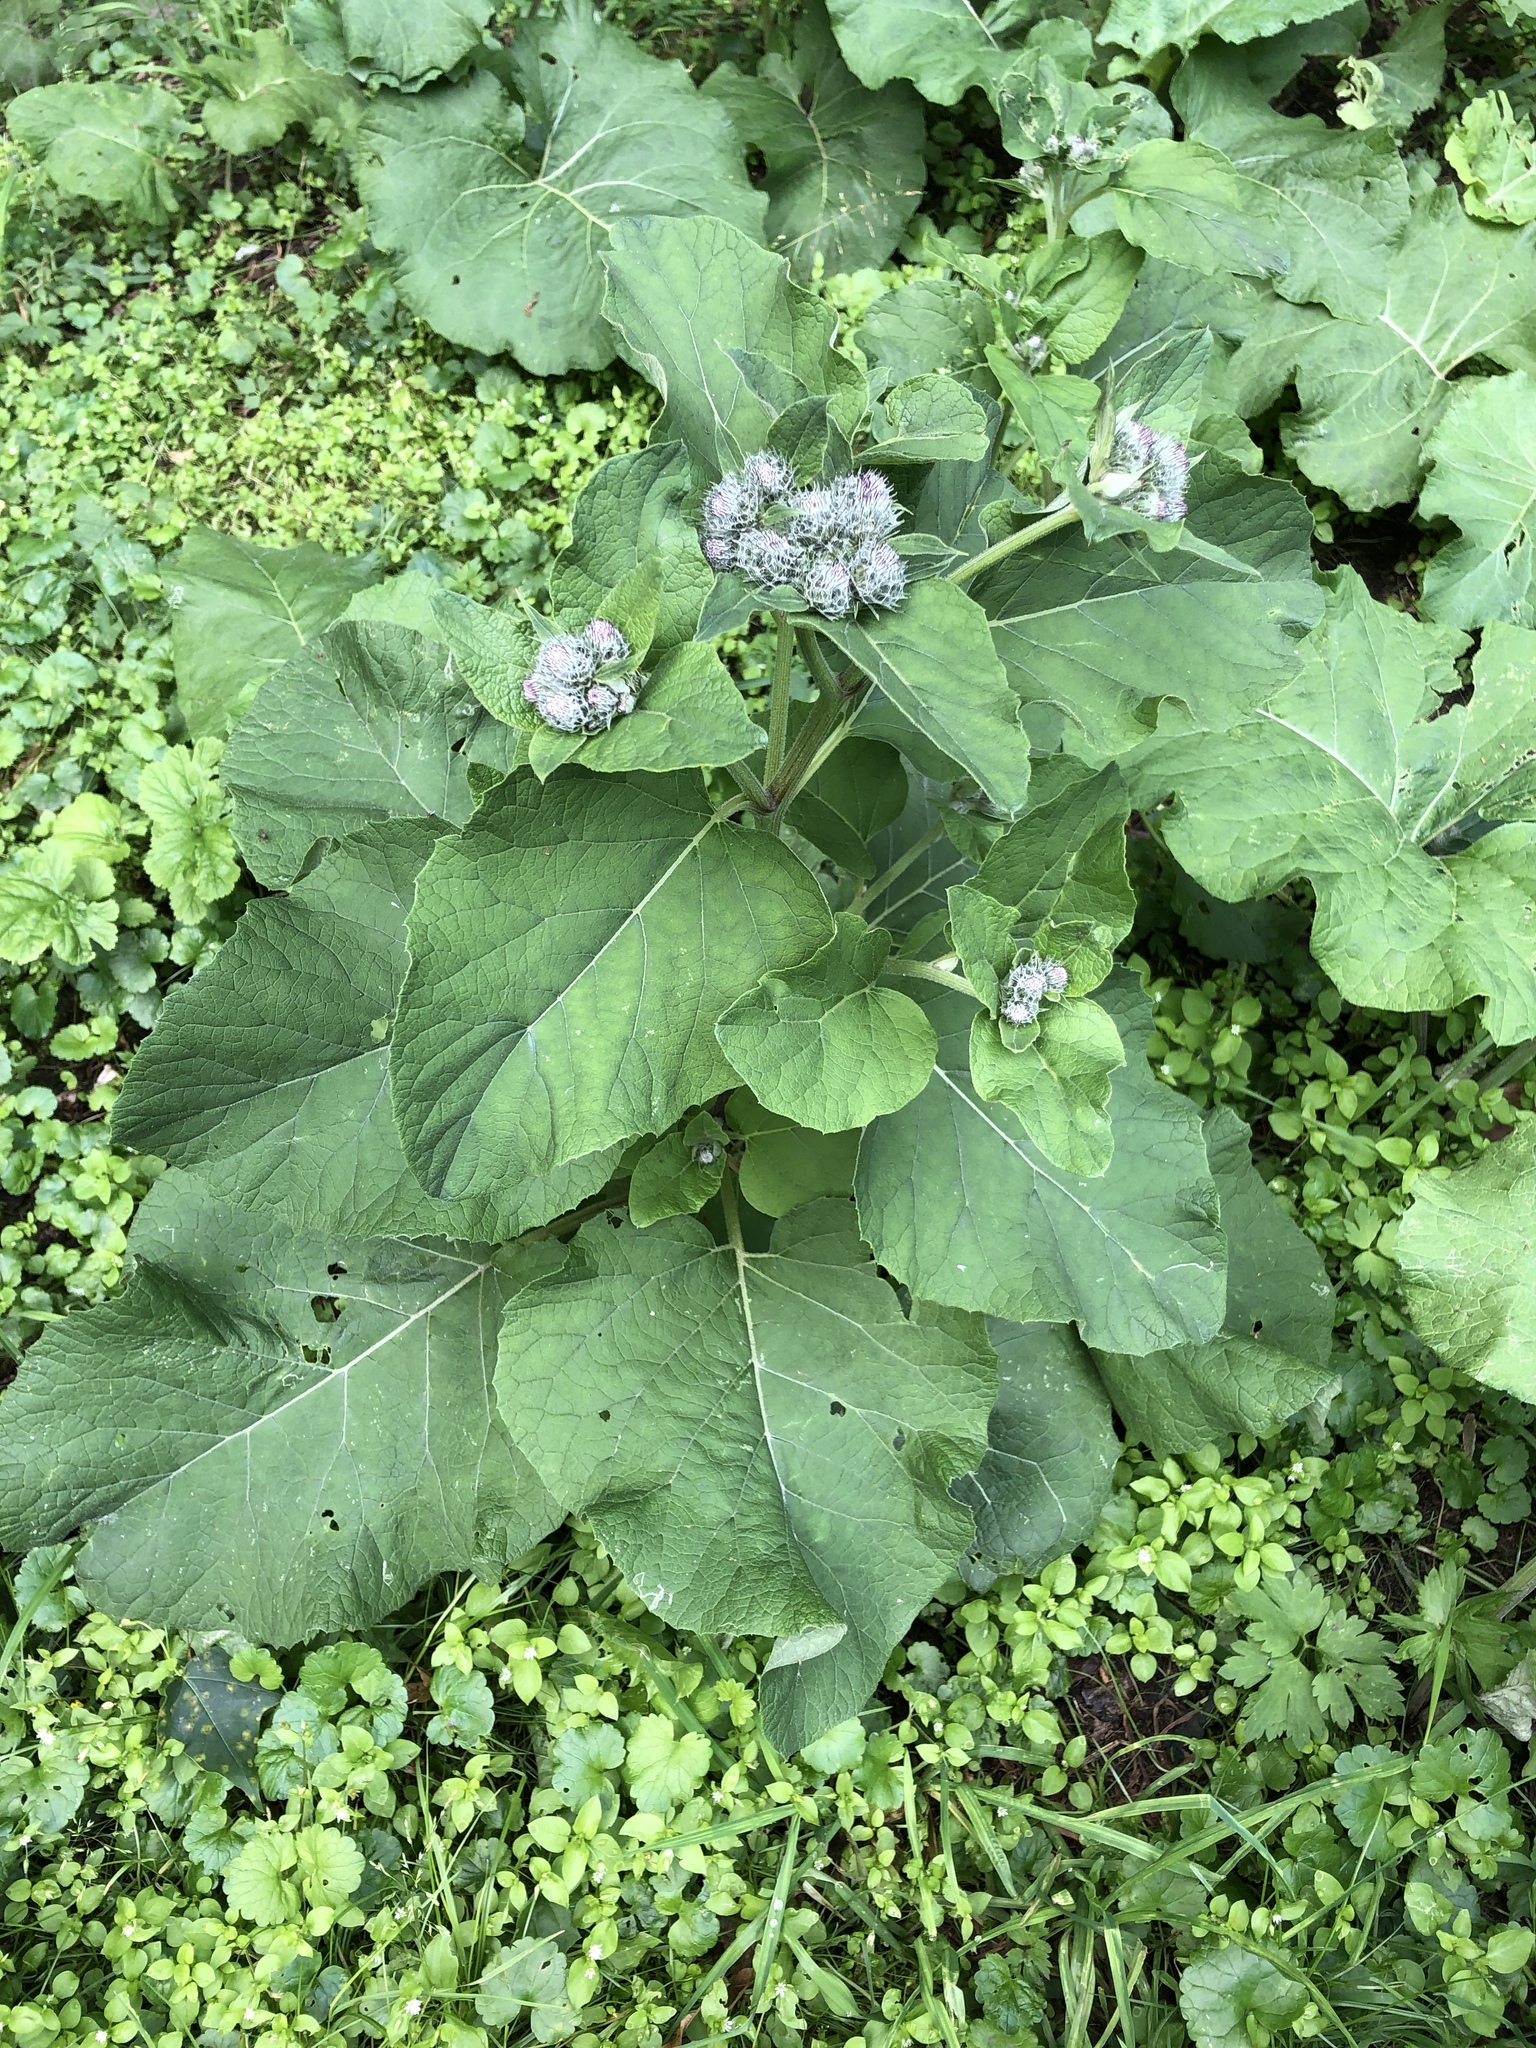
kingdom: Plantae
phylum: Tracheophyta
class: Magnoliopsida
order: Asterales
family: Asteraceae
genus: Arctium
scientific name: Arctium tomentosum
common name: Woolly burdock
